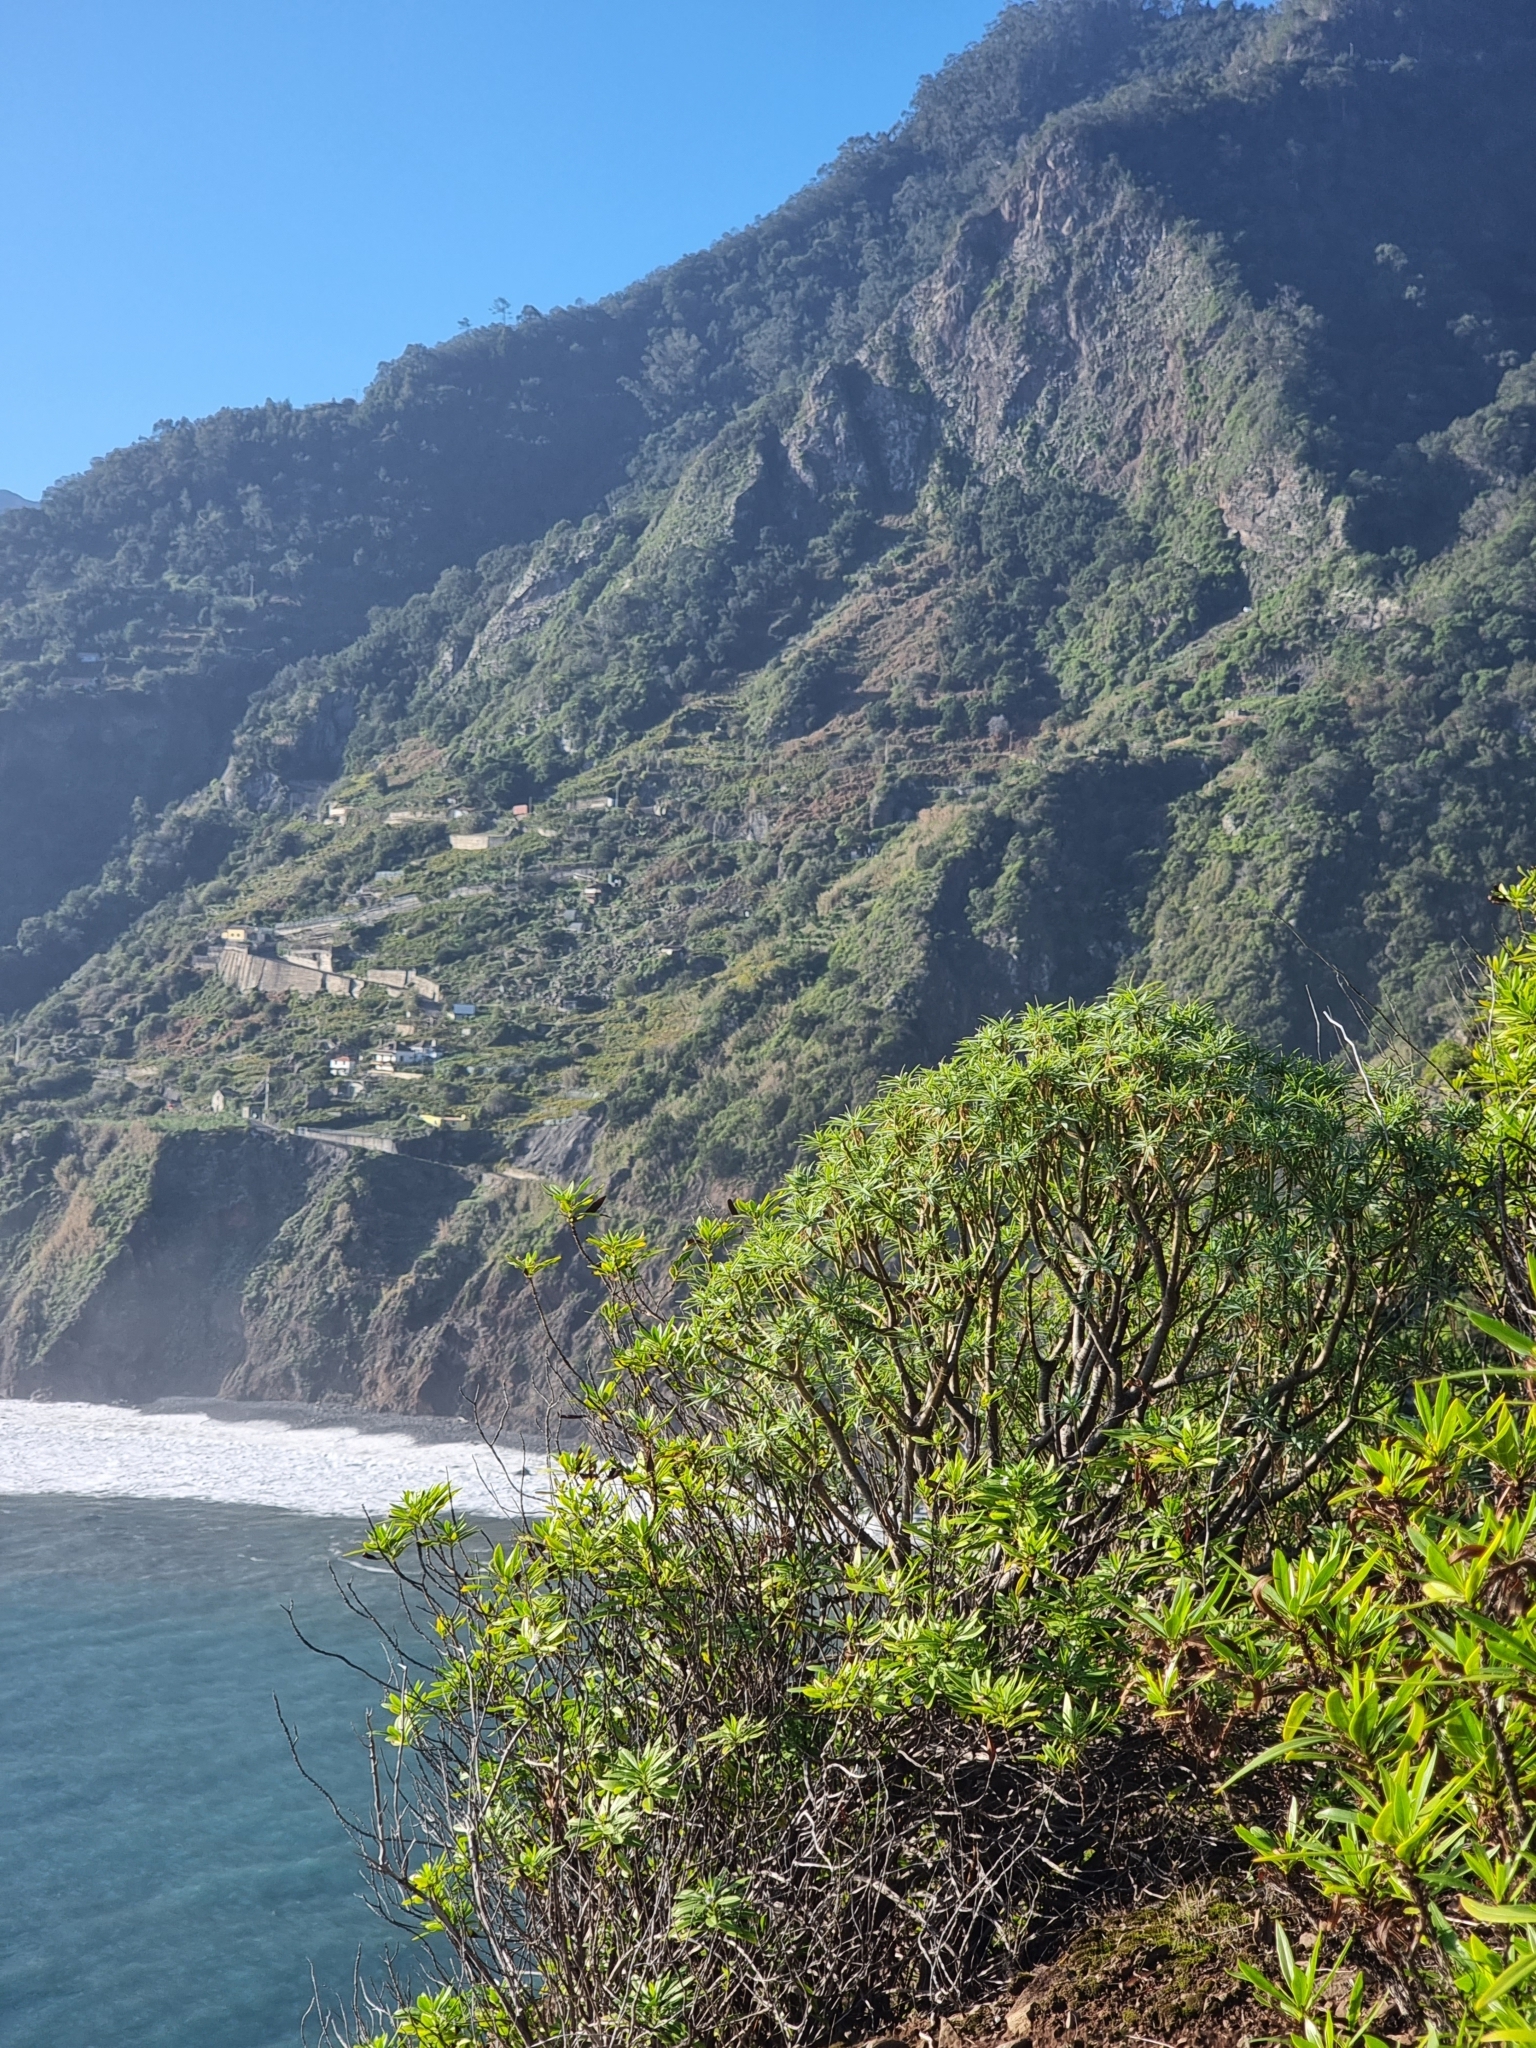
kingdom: Plantae
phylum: Tracheophyta
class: Magnoliopsida
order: Malpighiales
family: Euphorbiaceae
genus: Euphorbia
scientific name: Euphorbia piscatoria
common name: Fish-stunning spurge
